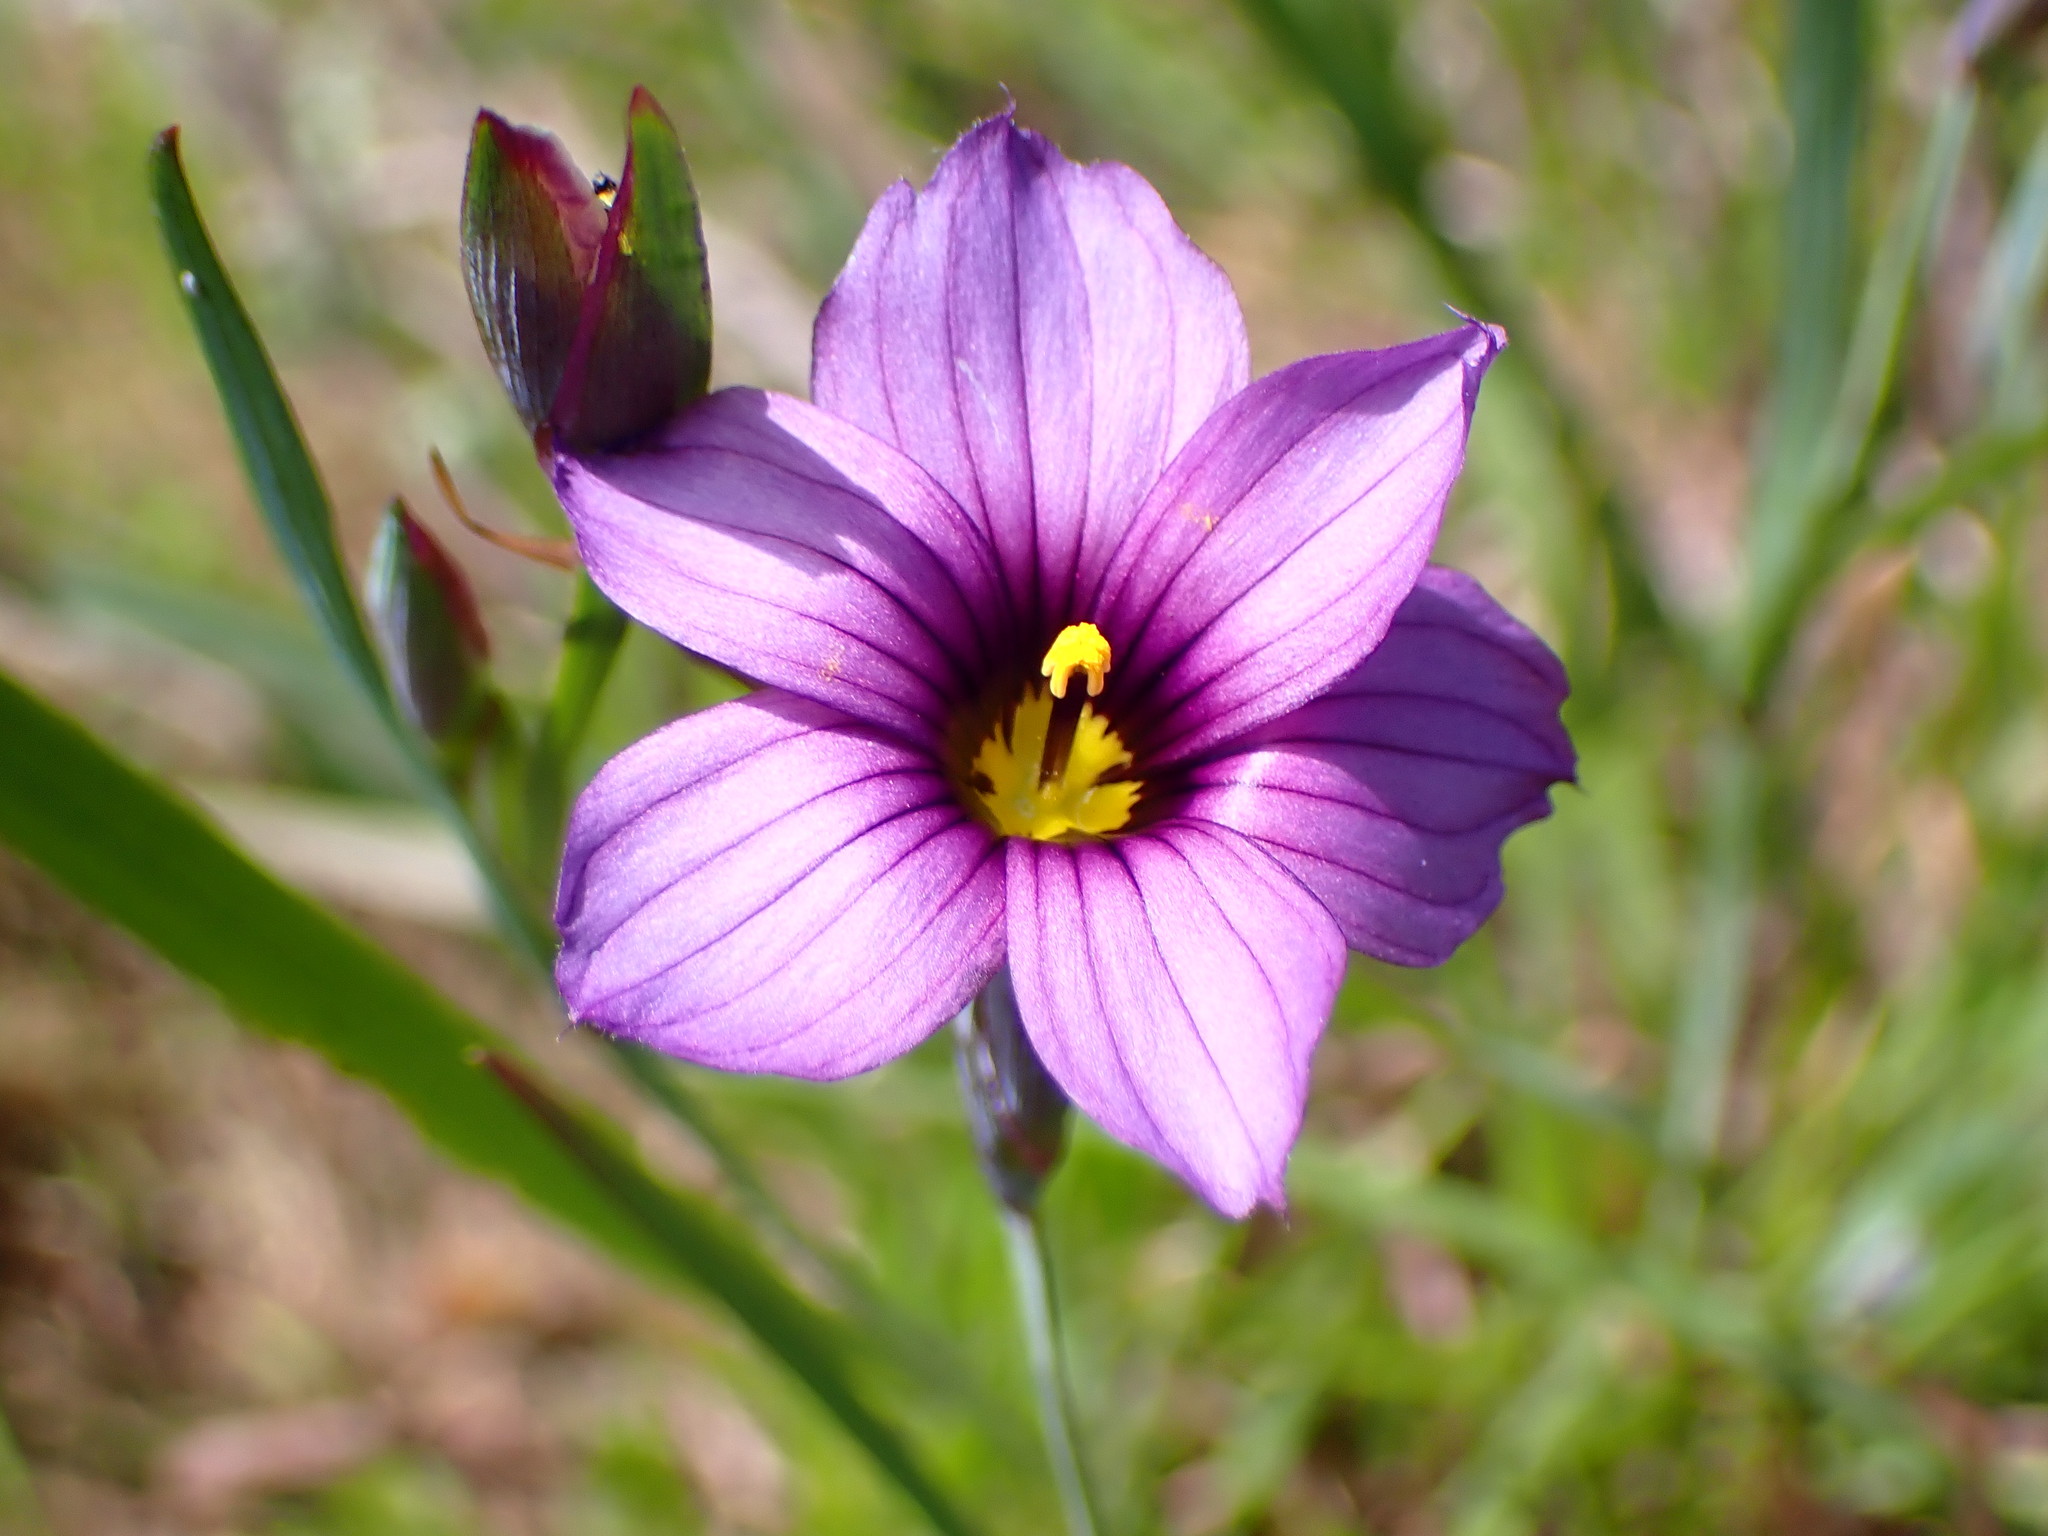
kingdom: Plantae
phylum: Tracheophyta
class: Liliopsida
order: Asparagales
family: Iridaceae
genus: Sisyrinchium
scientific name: Sisyrinchium bellum
